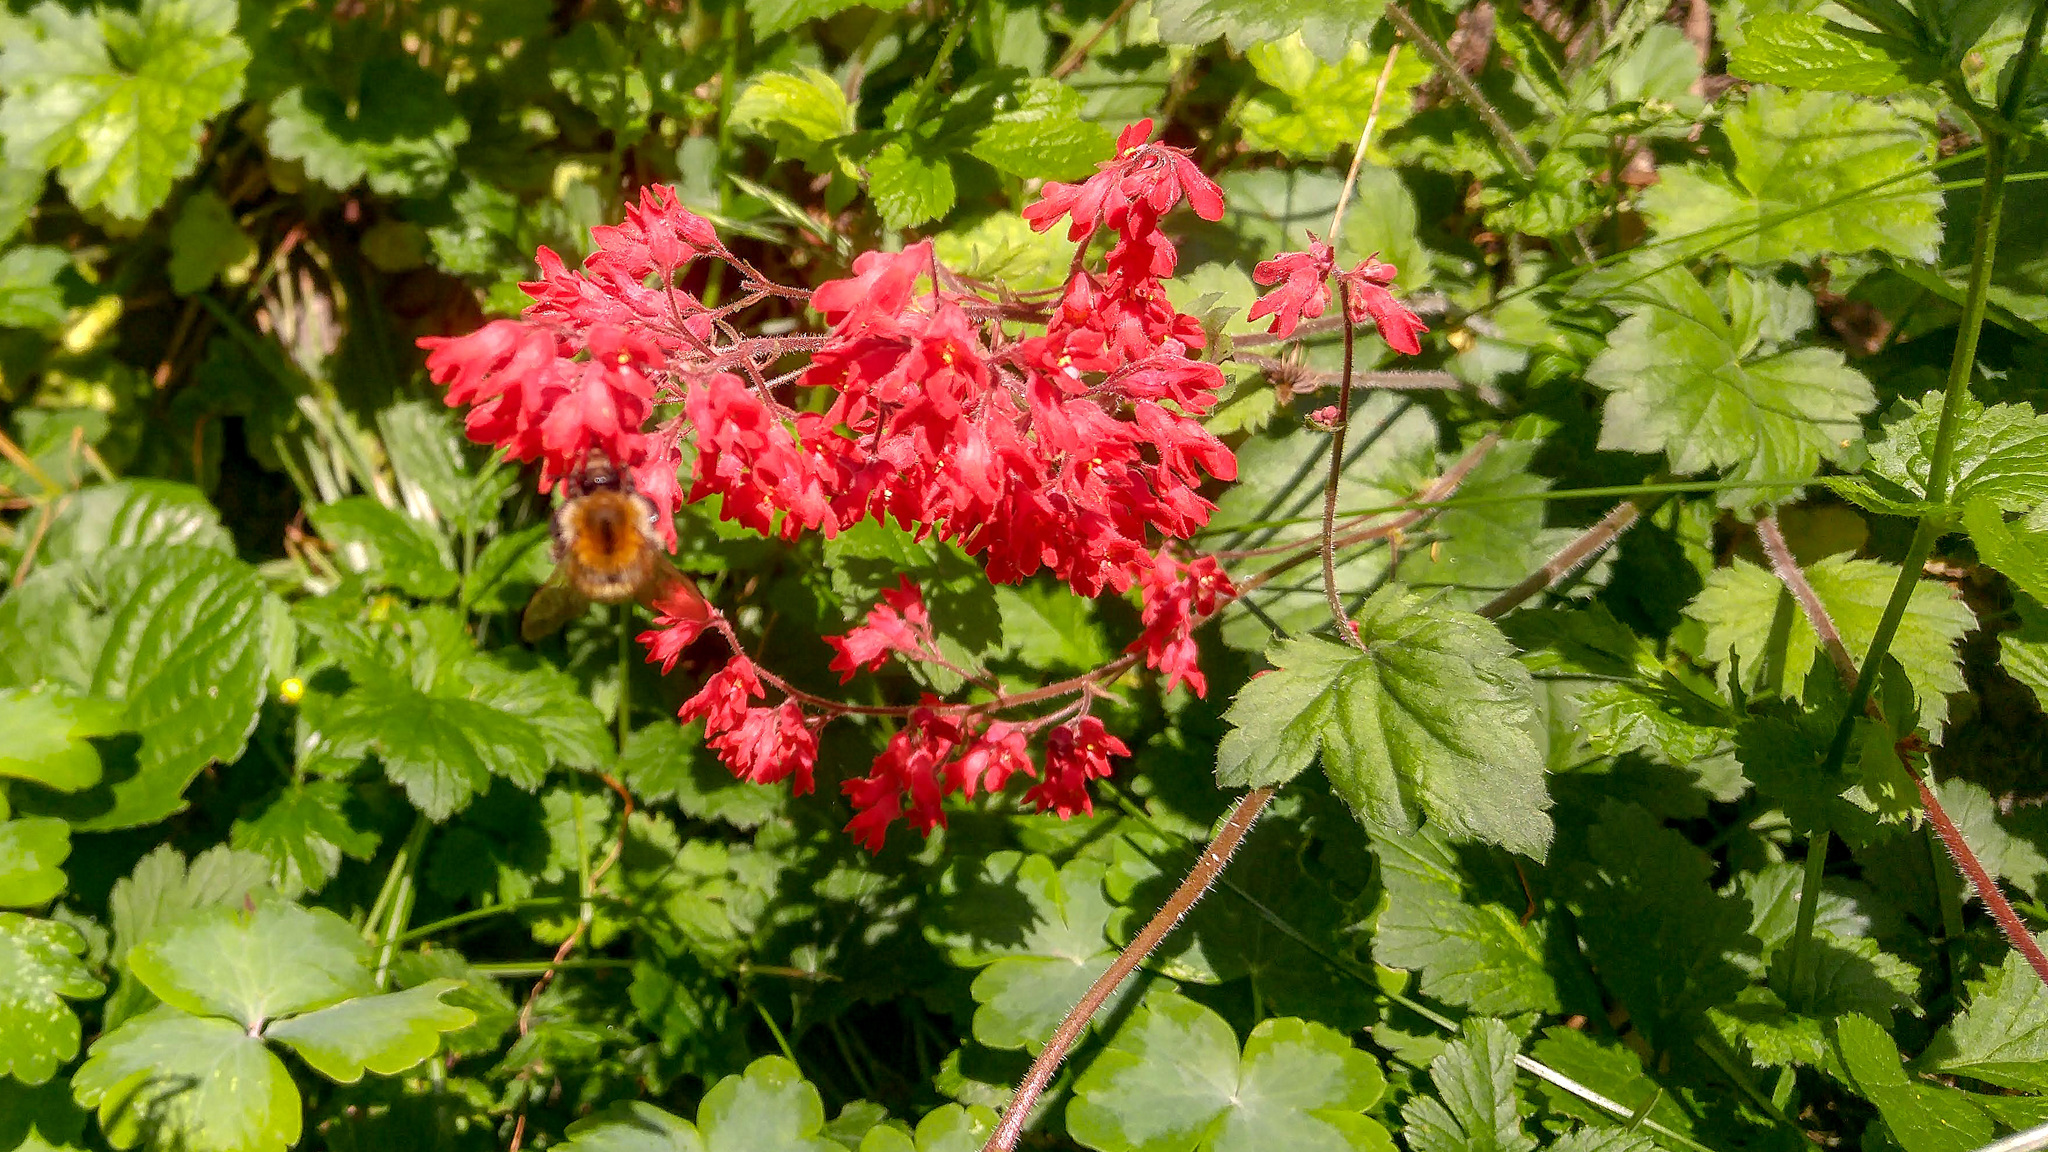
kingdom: Animalia
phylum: Arthropoda
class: Insecta
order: Hymenoptera
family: Apidae
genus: Bombus
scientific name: Bombus pascuorum
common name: Common carder bee
